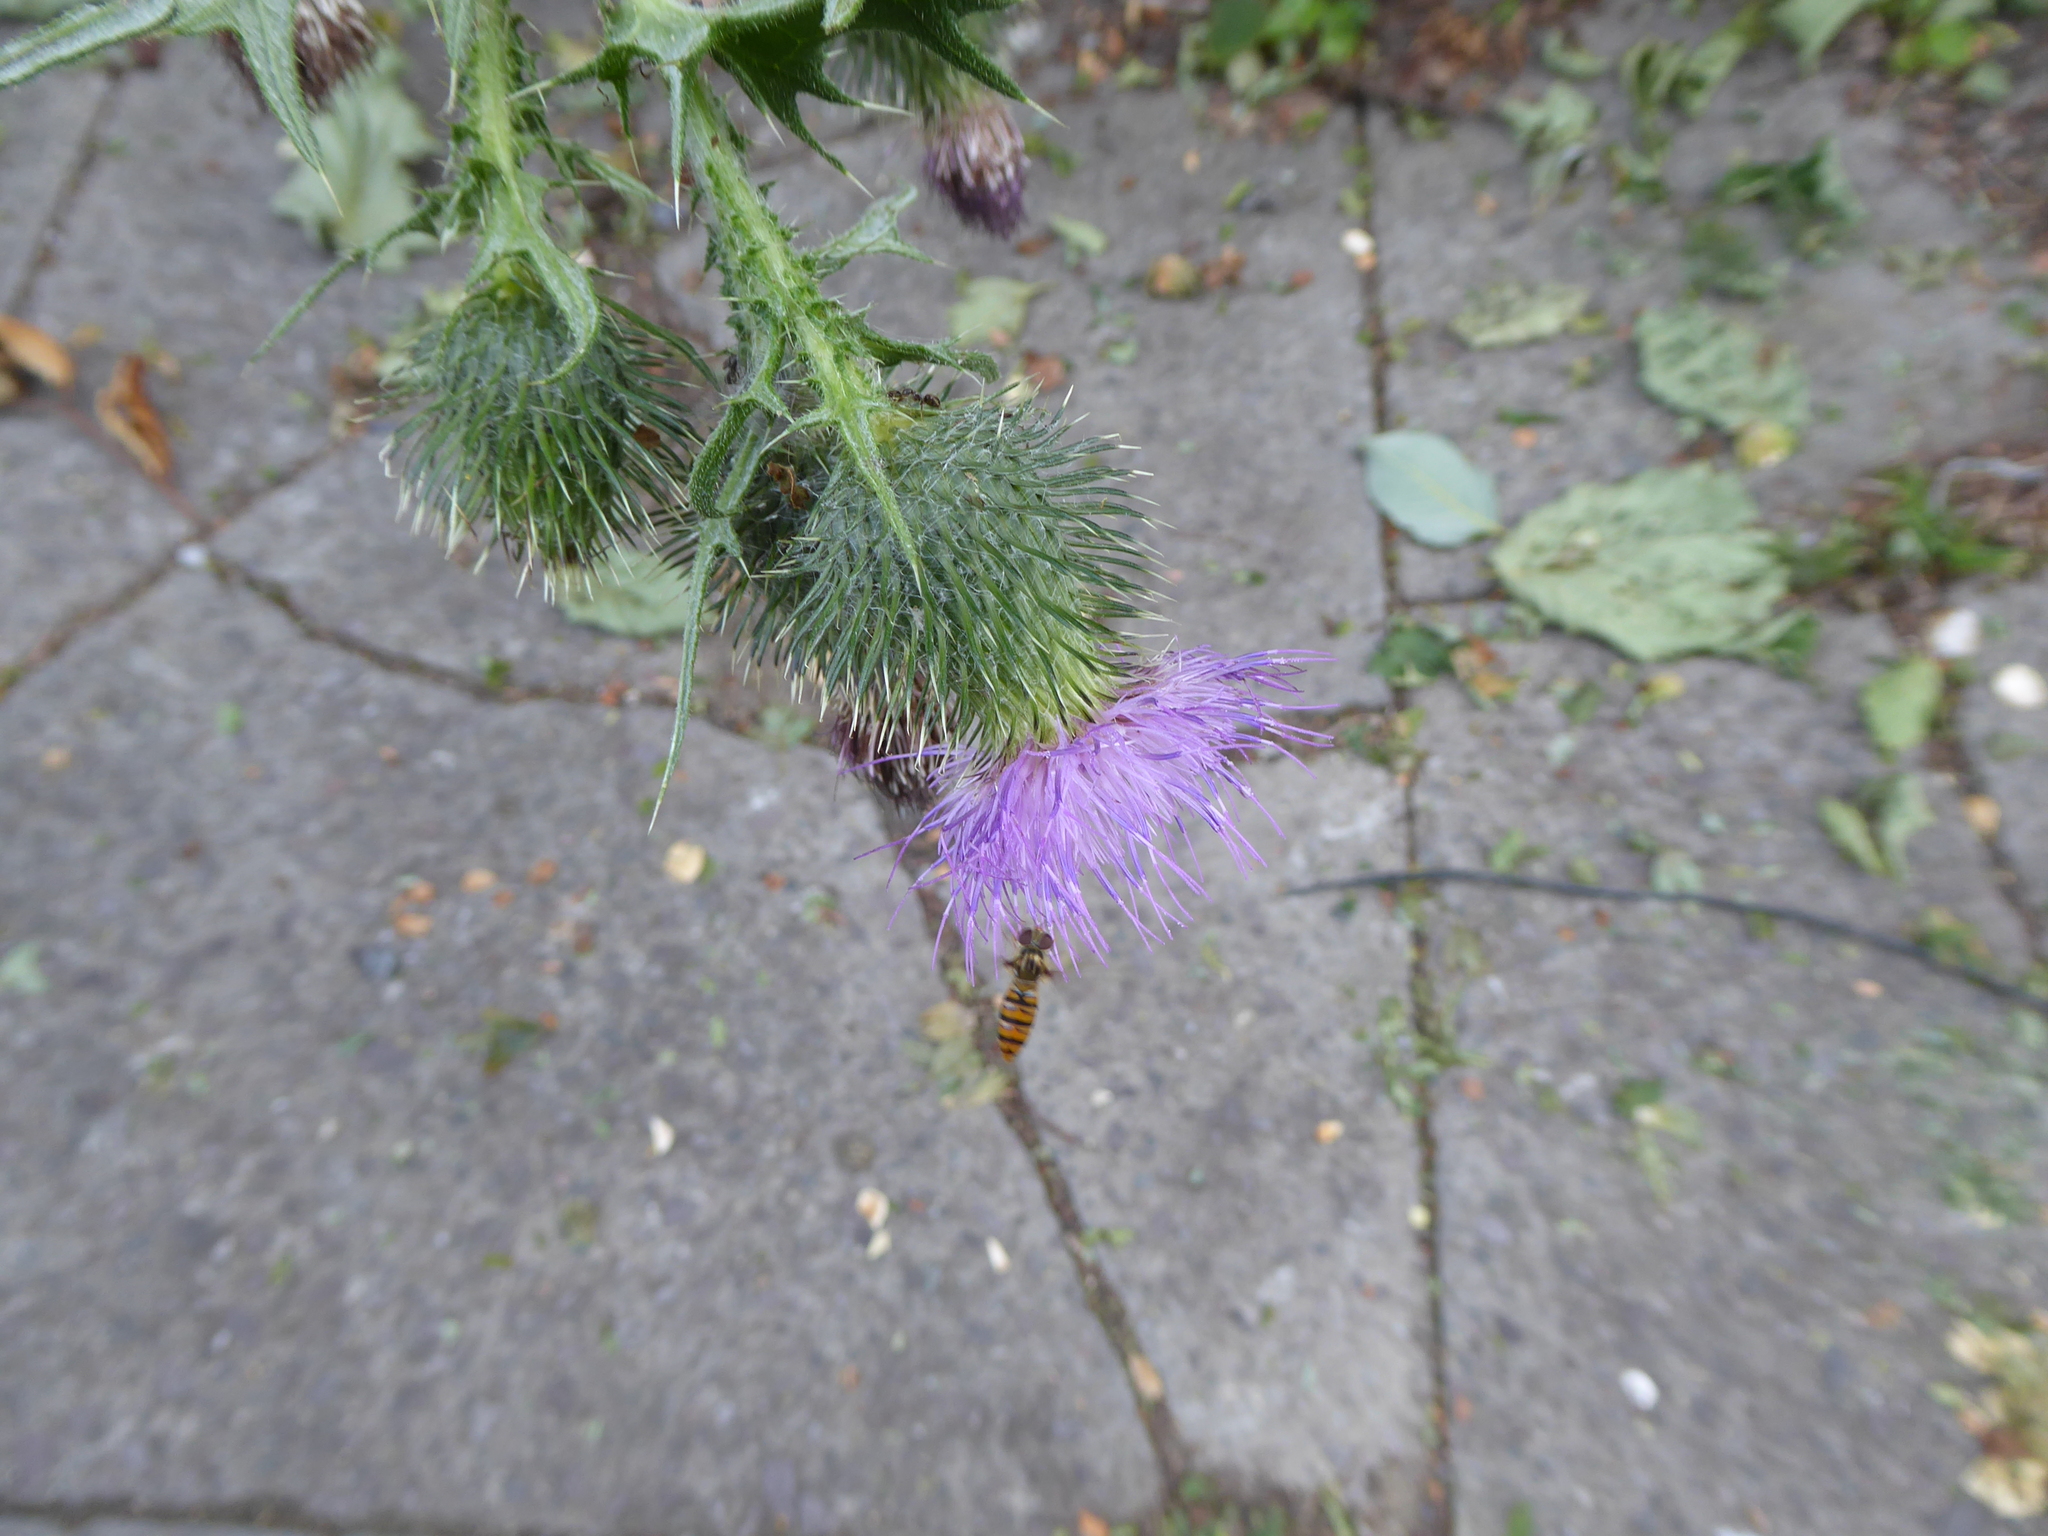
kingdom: Animalia
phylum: Arthropoda
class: Insecta
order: Diptera
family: Syrphidae
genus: Episyrphus
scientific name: Episyrphus balteatus
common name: Marmalade hoverfly
